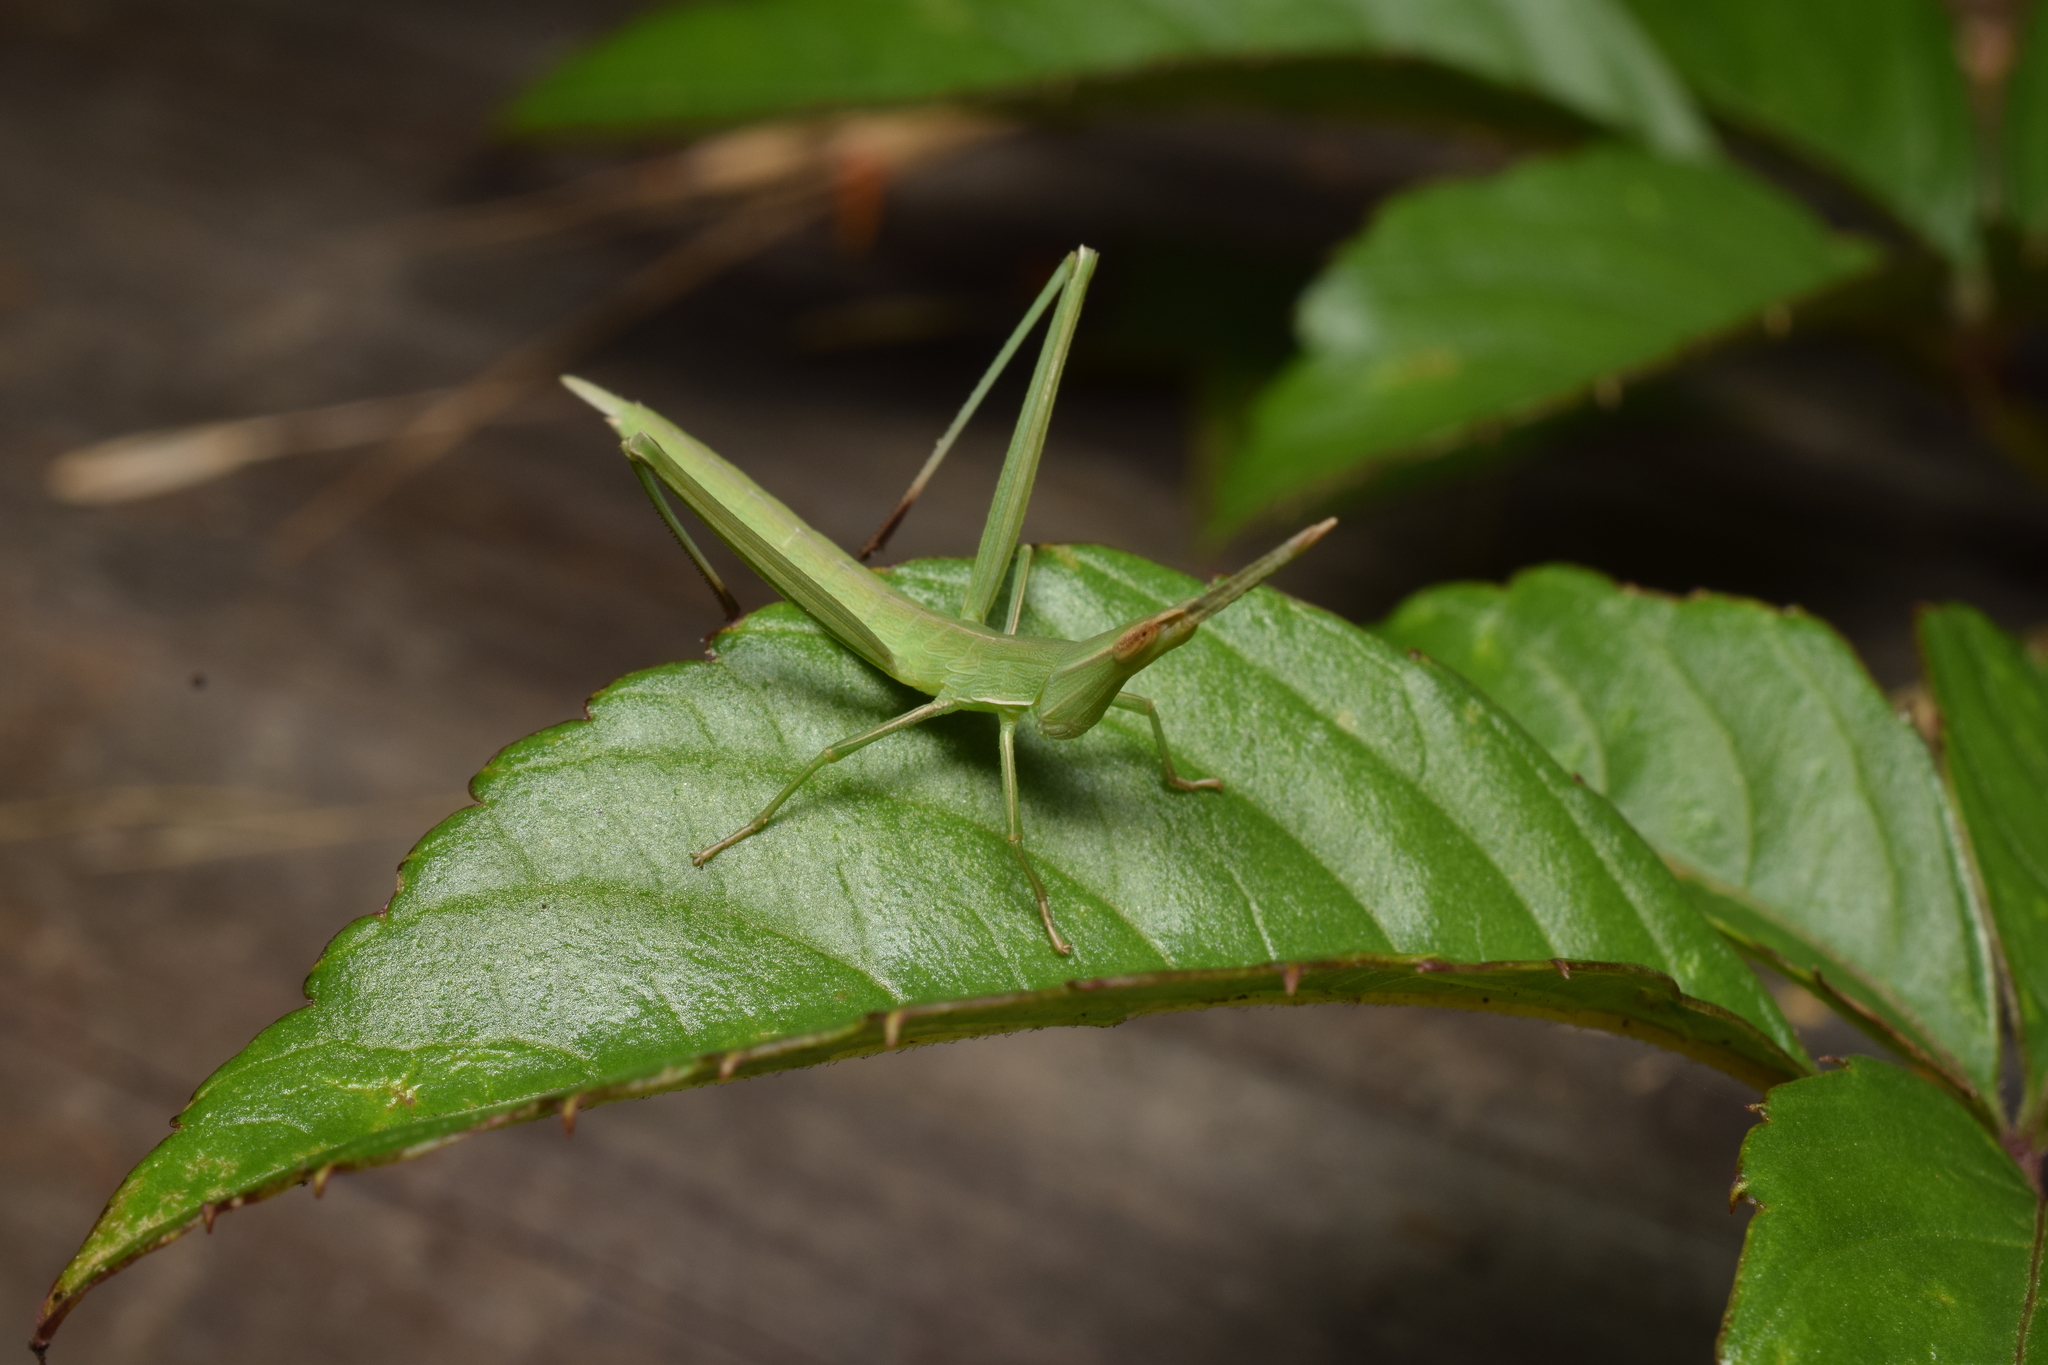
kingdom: Animalia
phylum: Arthropoda
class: Insecta
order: Orthoptera
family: Acrididae
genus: Acrida
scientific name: Acrida cinerea
